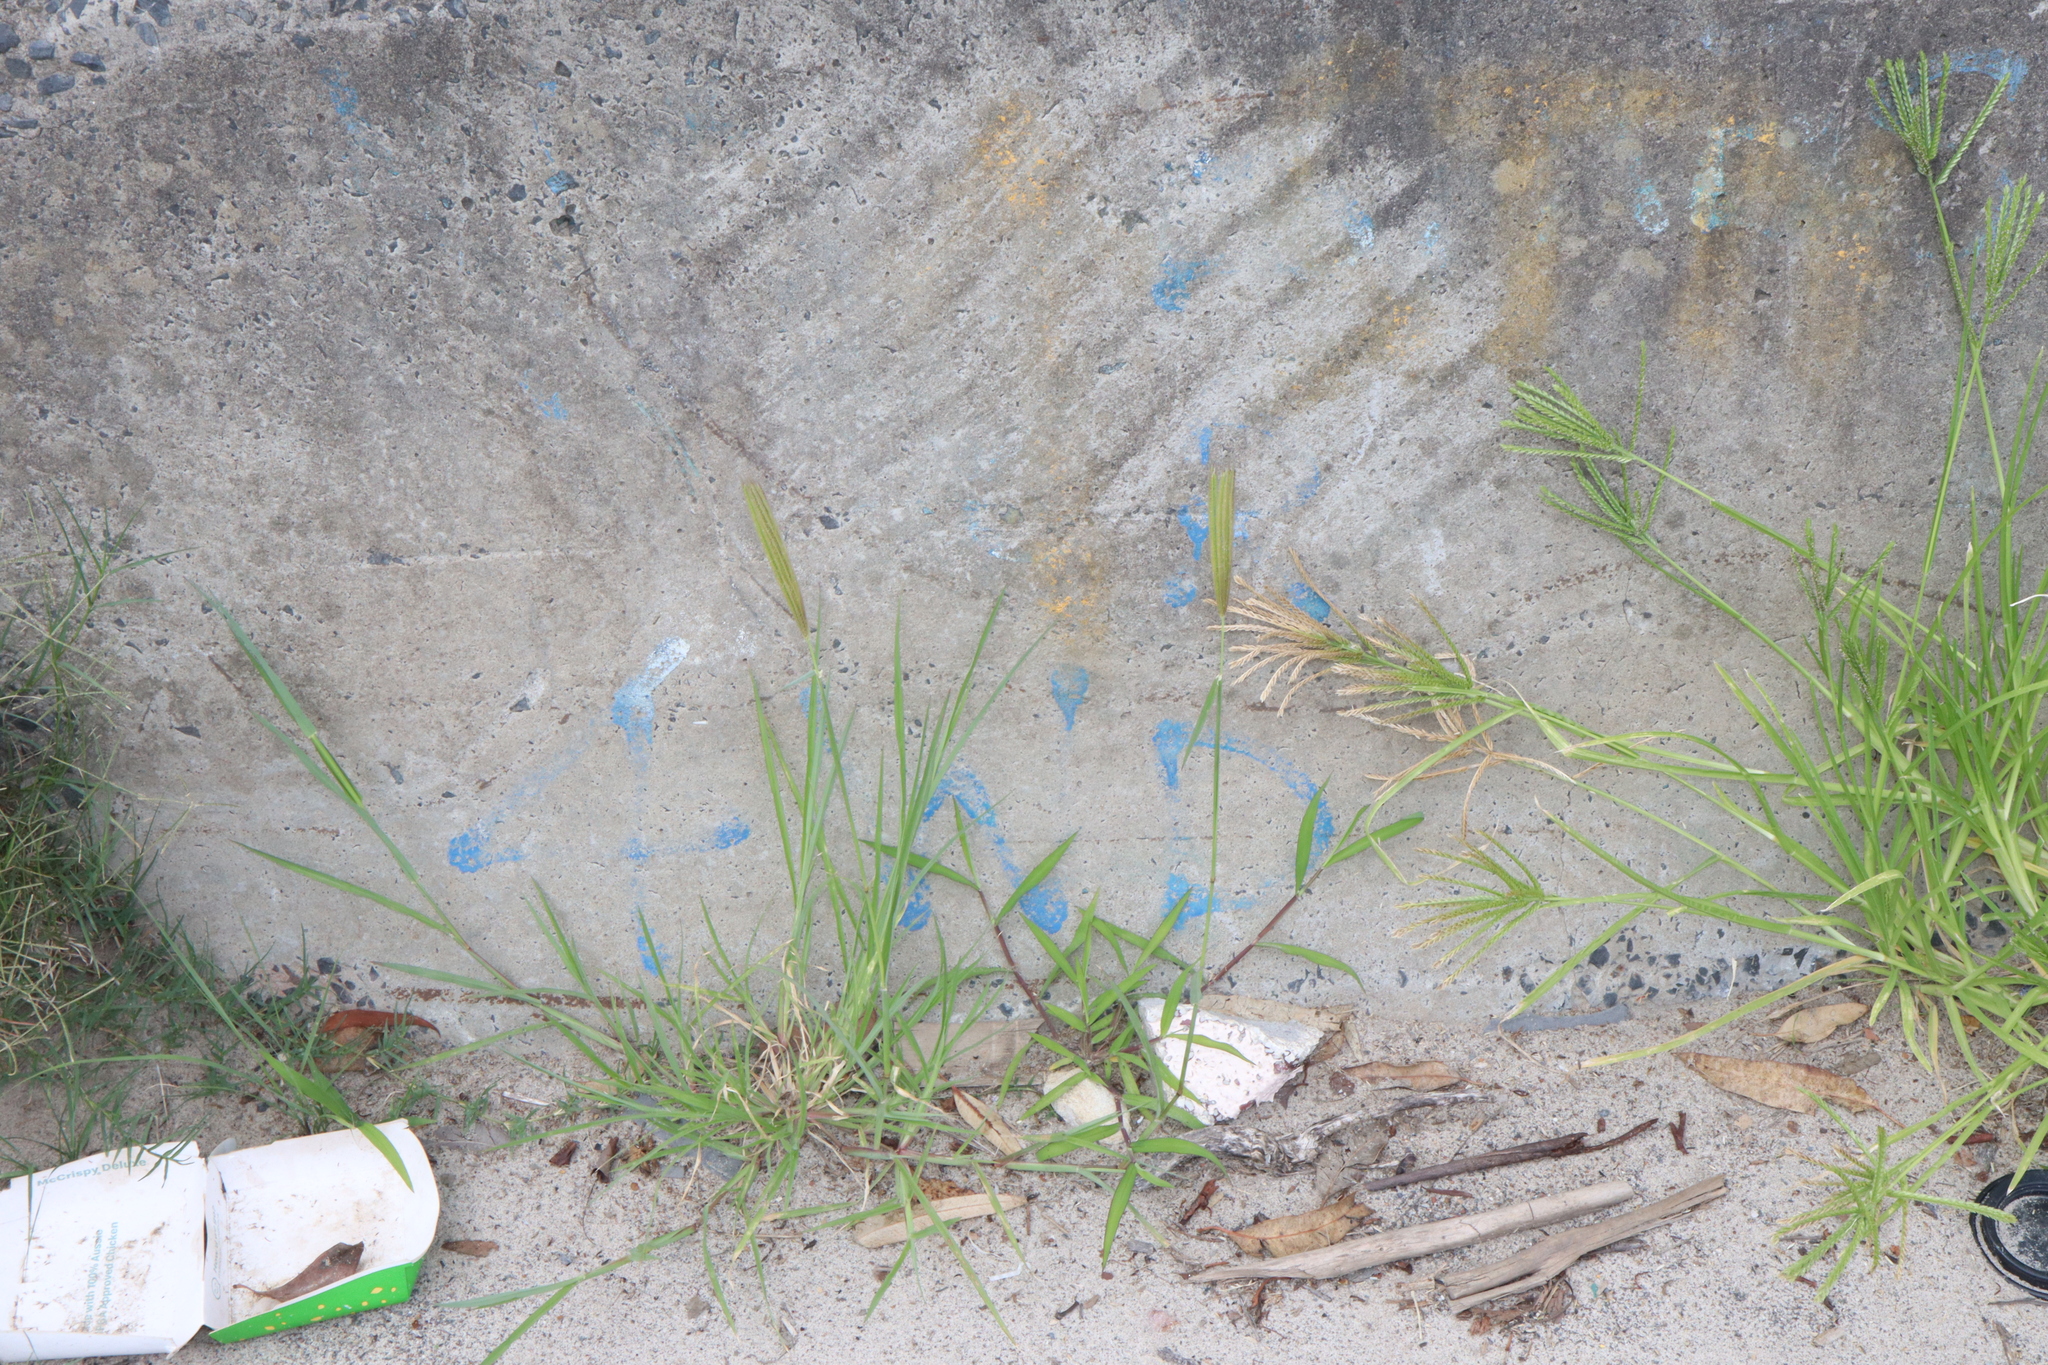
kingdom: Plantae
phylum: Tracheophyta
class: Liliopsida
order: Poales
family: Poaceae
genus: Chloris
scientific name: Chloris virgata
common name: Feathery rhodes-grass
